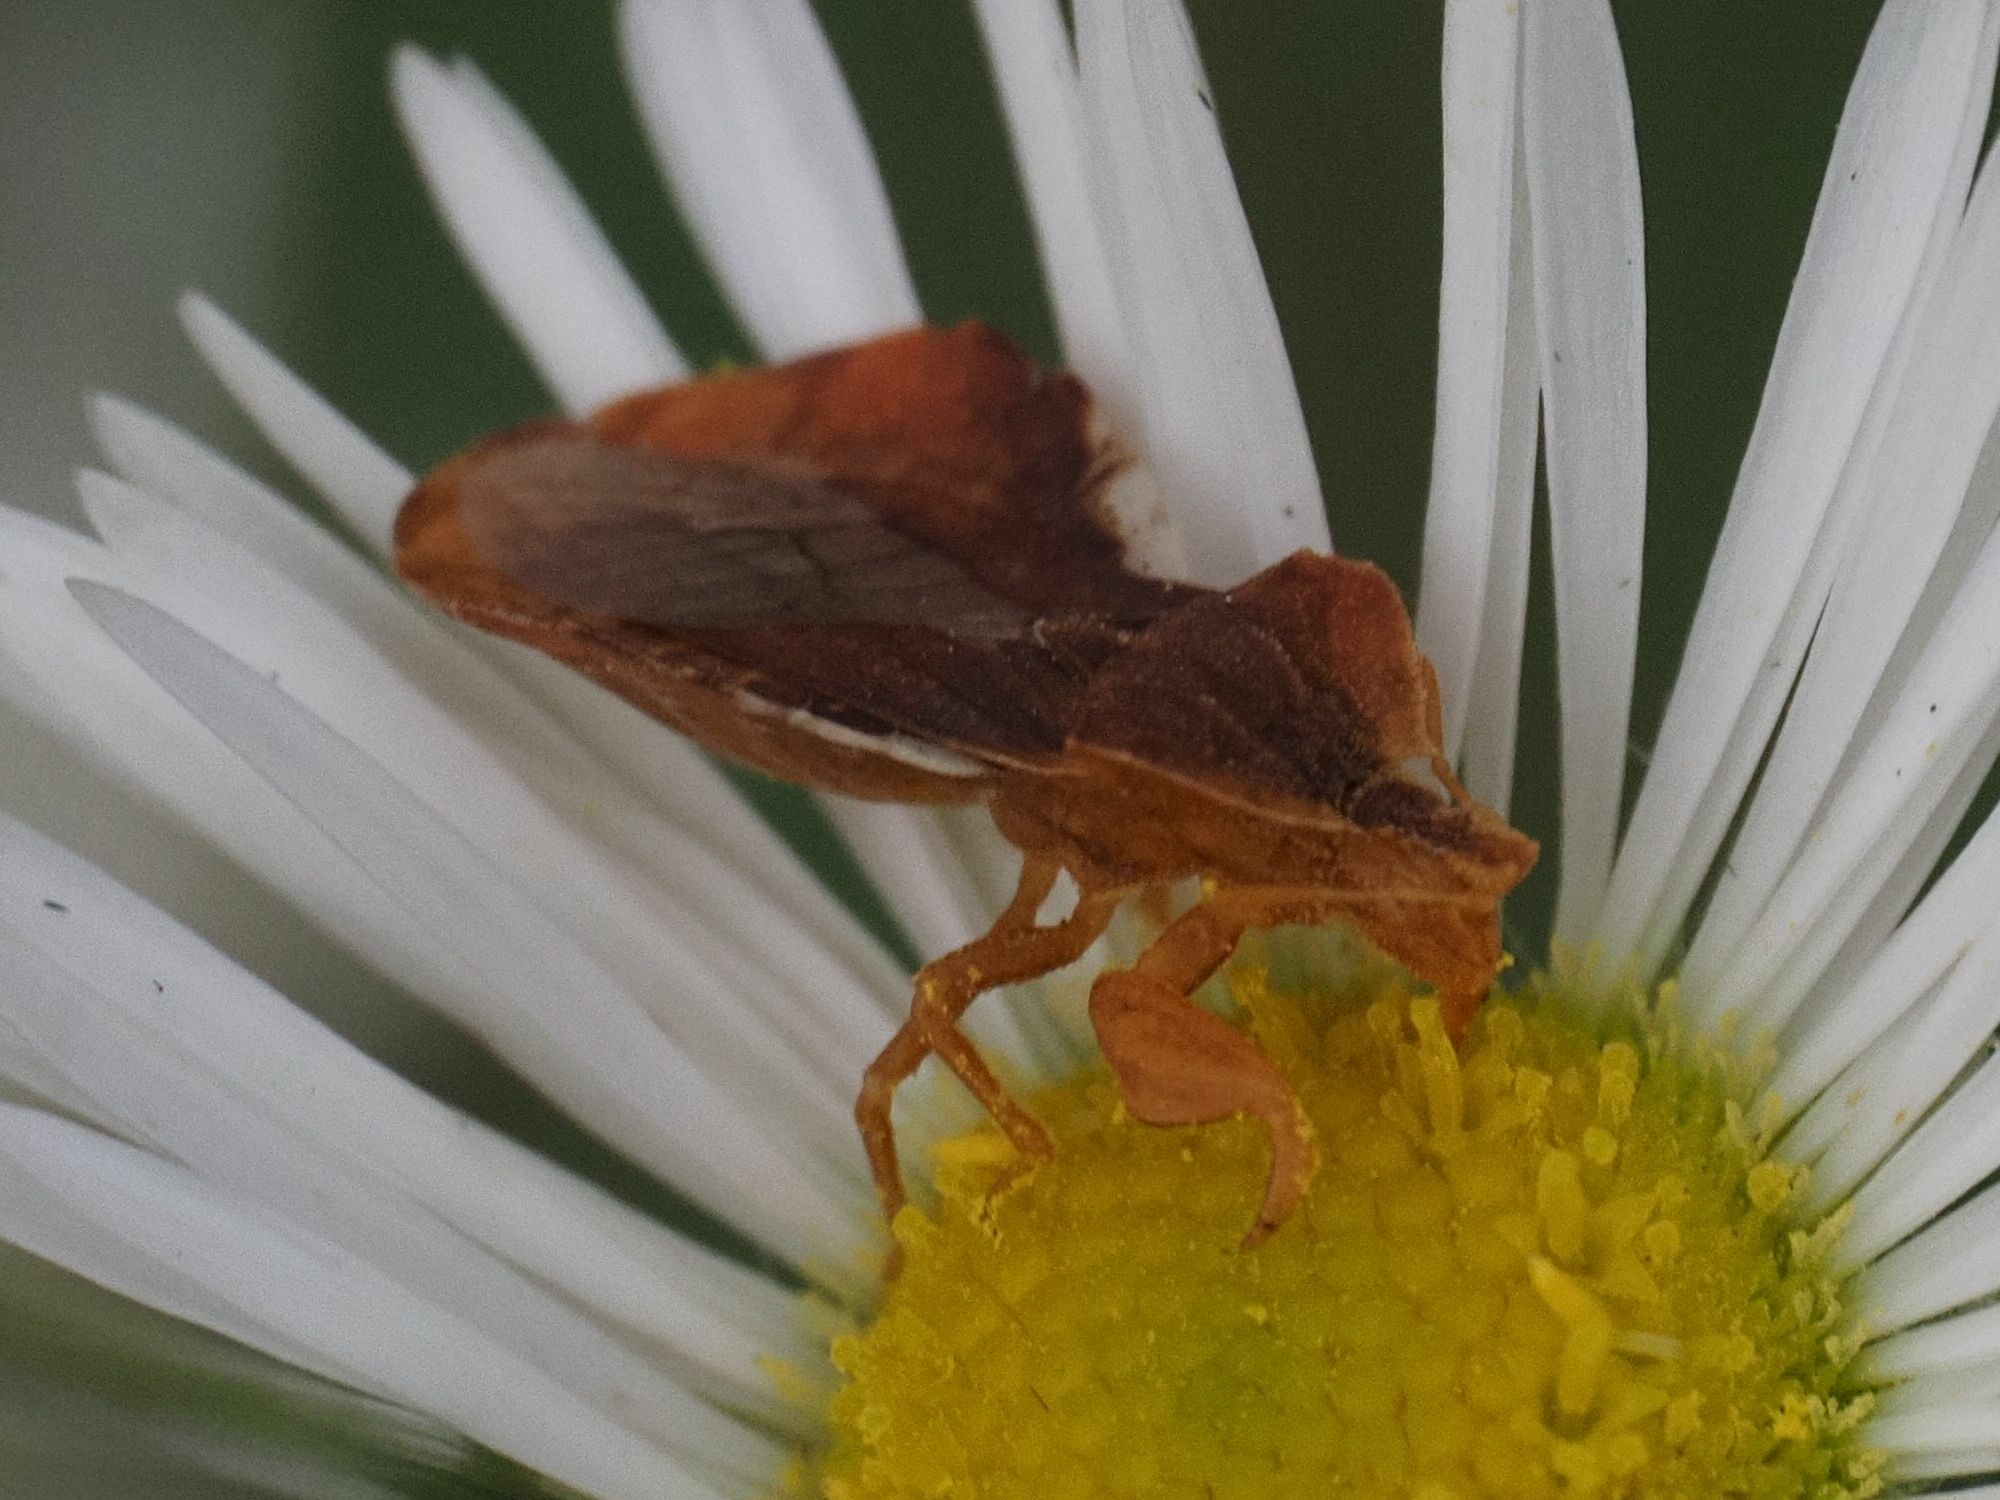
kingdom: Animalia
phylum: Arthropoda
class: Insecta
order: Hemiptera
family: Reduviidae
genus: Phymata
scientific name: Phymata crassipes
